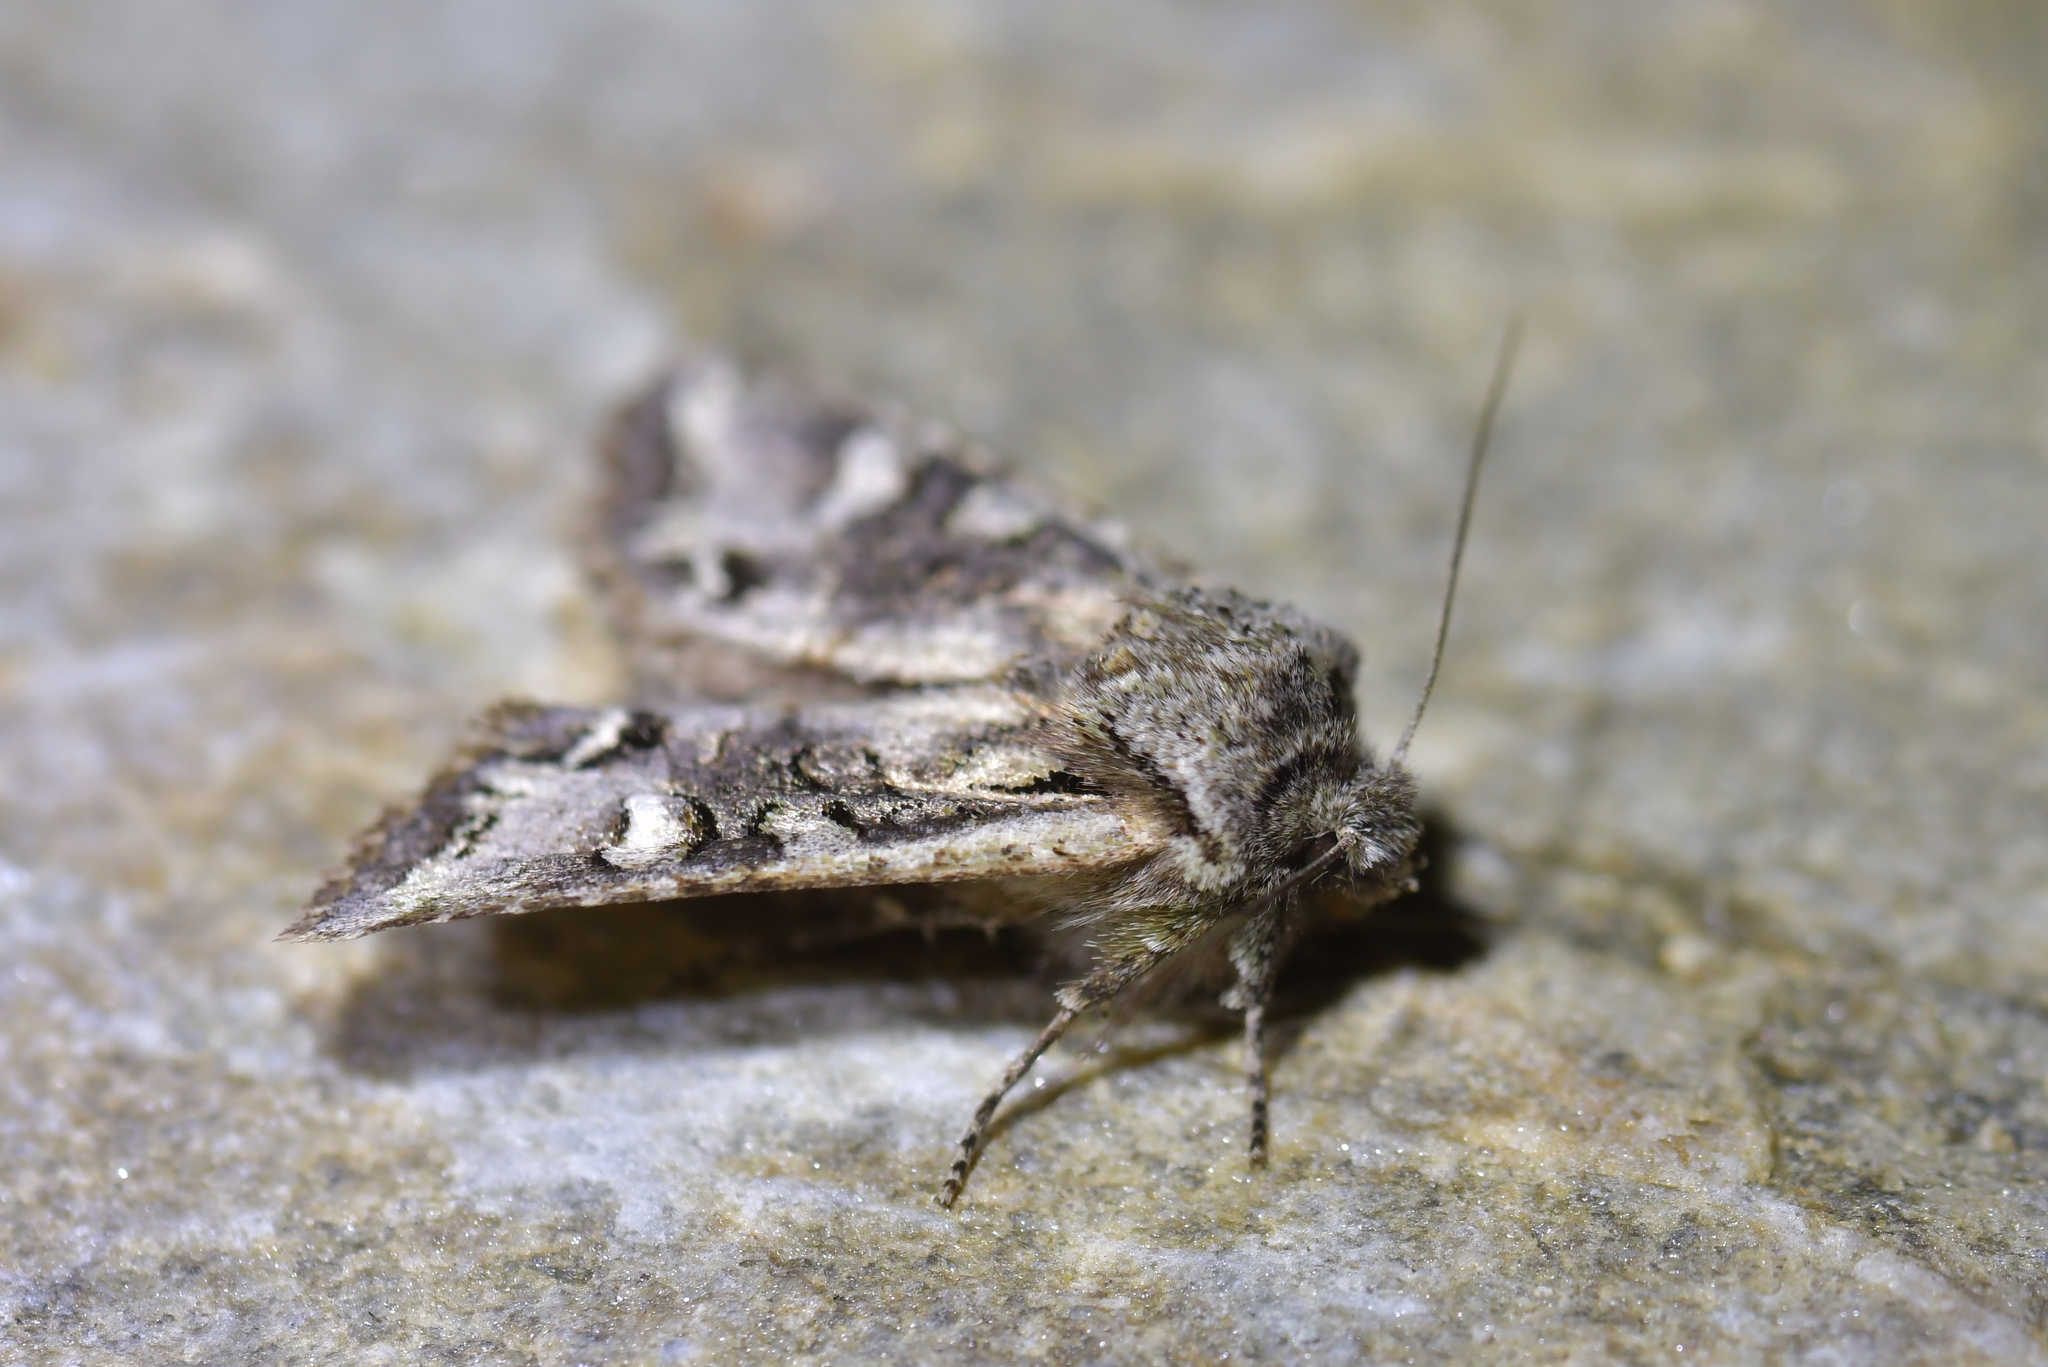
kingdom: Animalia
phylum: Arthropoda
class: Insecta
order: Lepidoptera
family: Noctuidae
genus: Ichneutica
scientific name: Ichneutica skelloni
